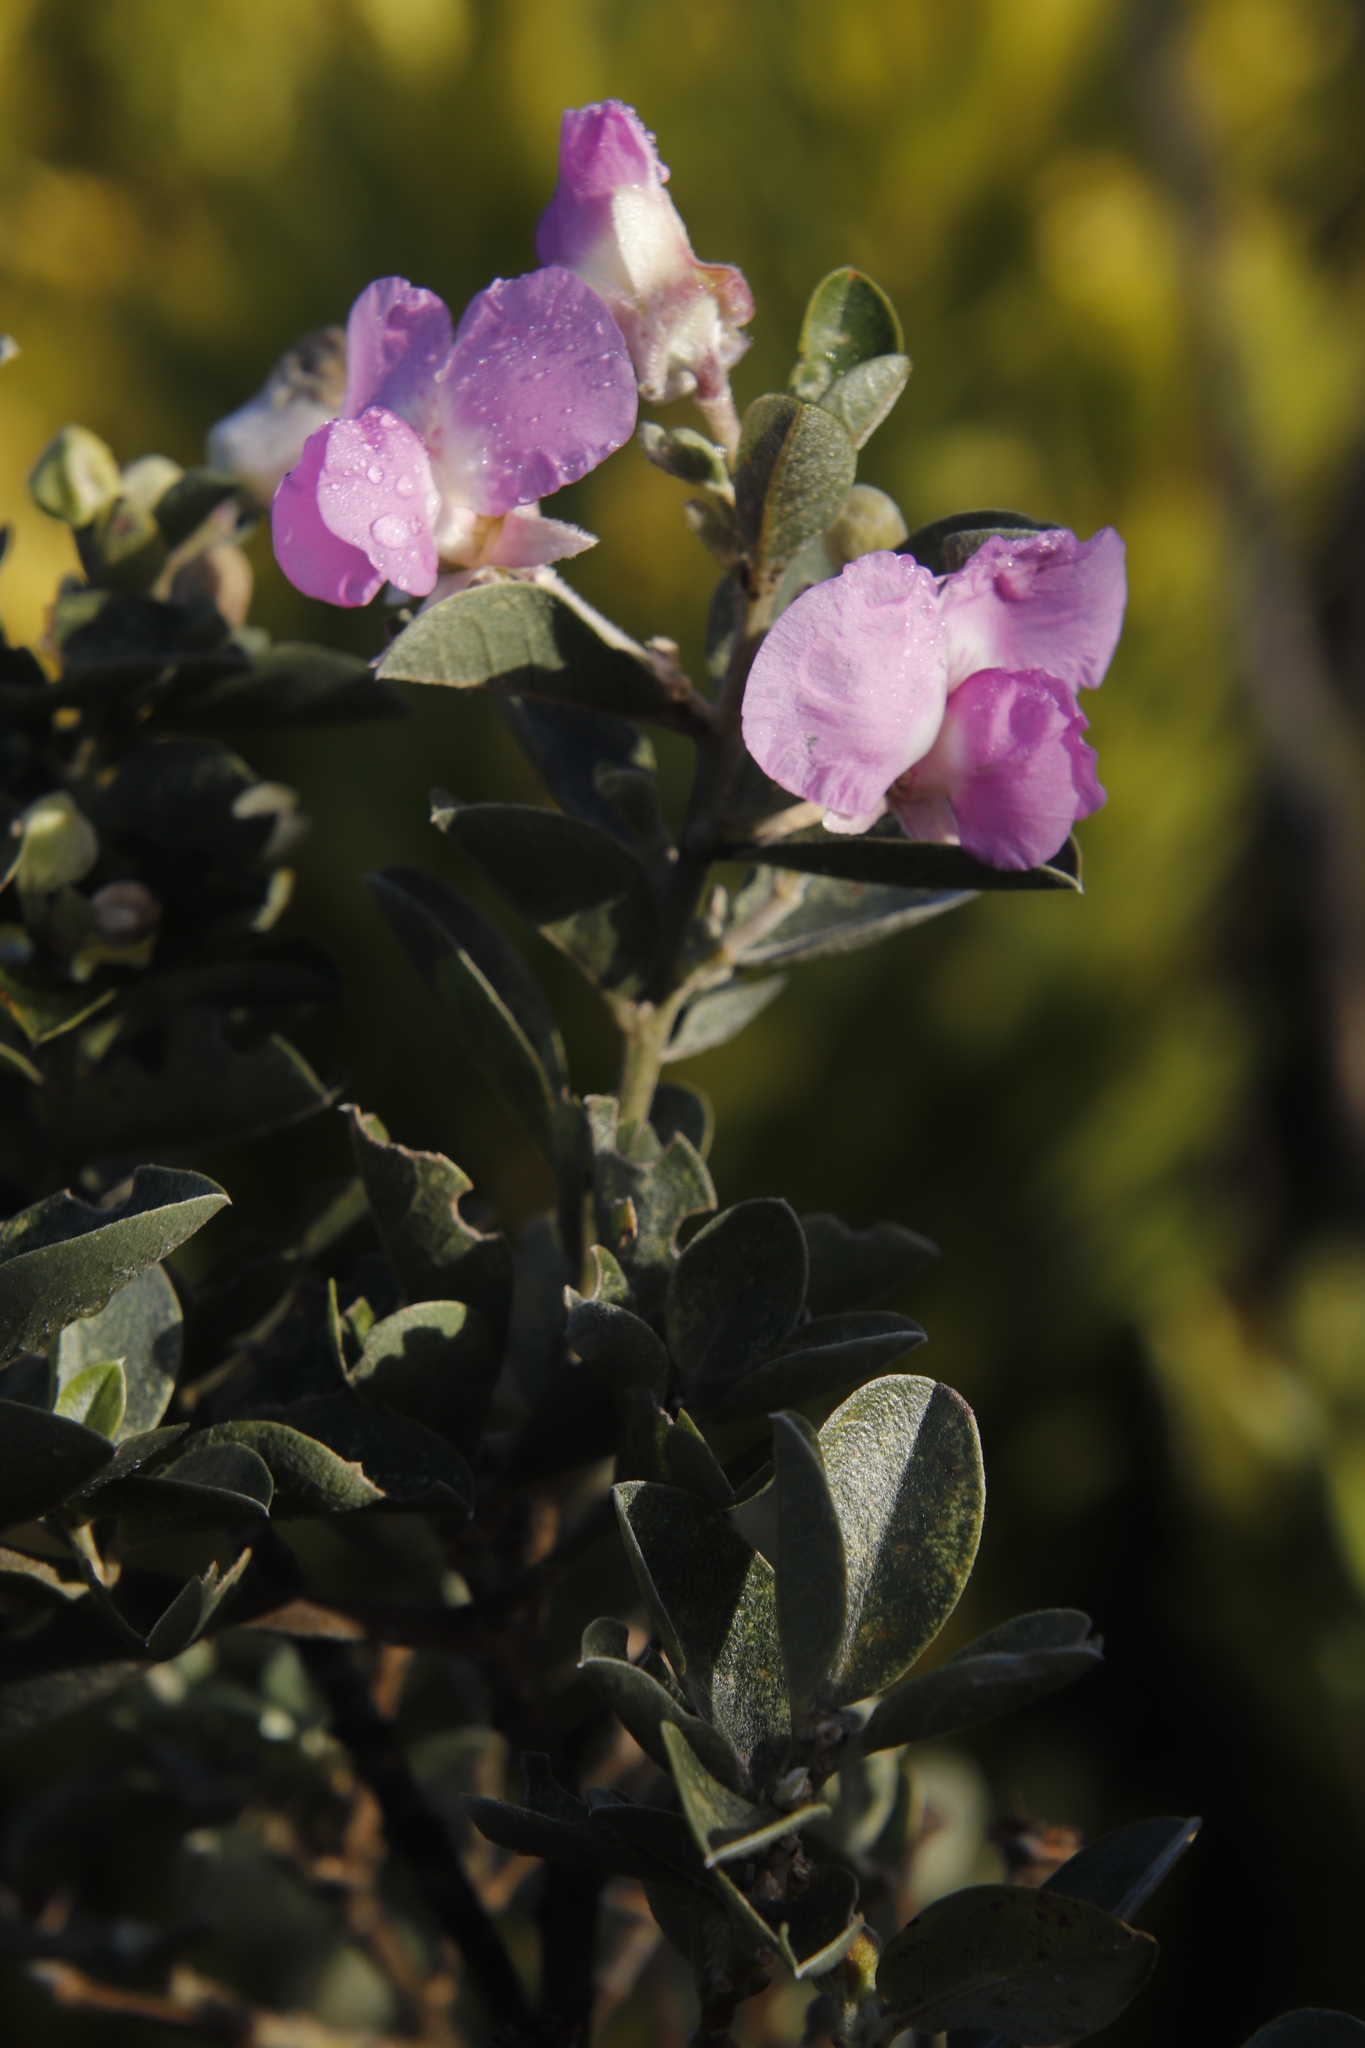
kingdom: Plantae
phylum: Tracheophyta
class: Magnoliopsida
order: Fabales
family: Fabaceae
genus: Podalyria
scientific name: Podalyria calyptrata
